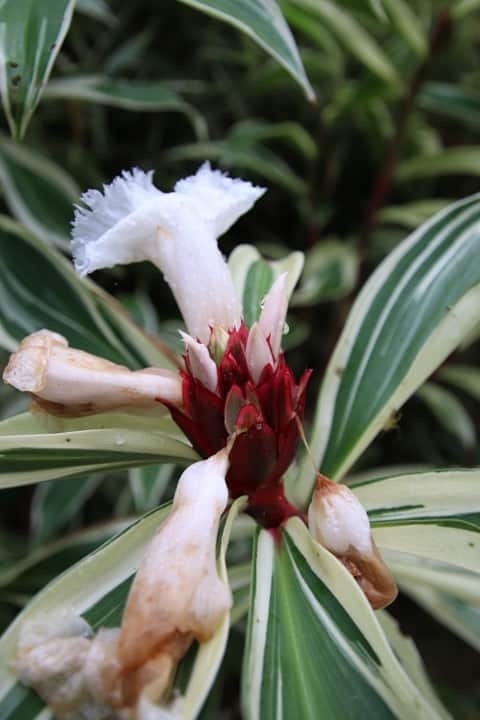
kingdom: Plantae
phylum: Tracheophyta
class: Liliopsida
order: Zingiberales
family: Costaceae
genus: Hellenia
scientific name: Hellenia speciosa
